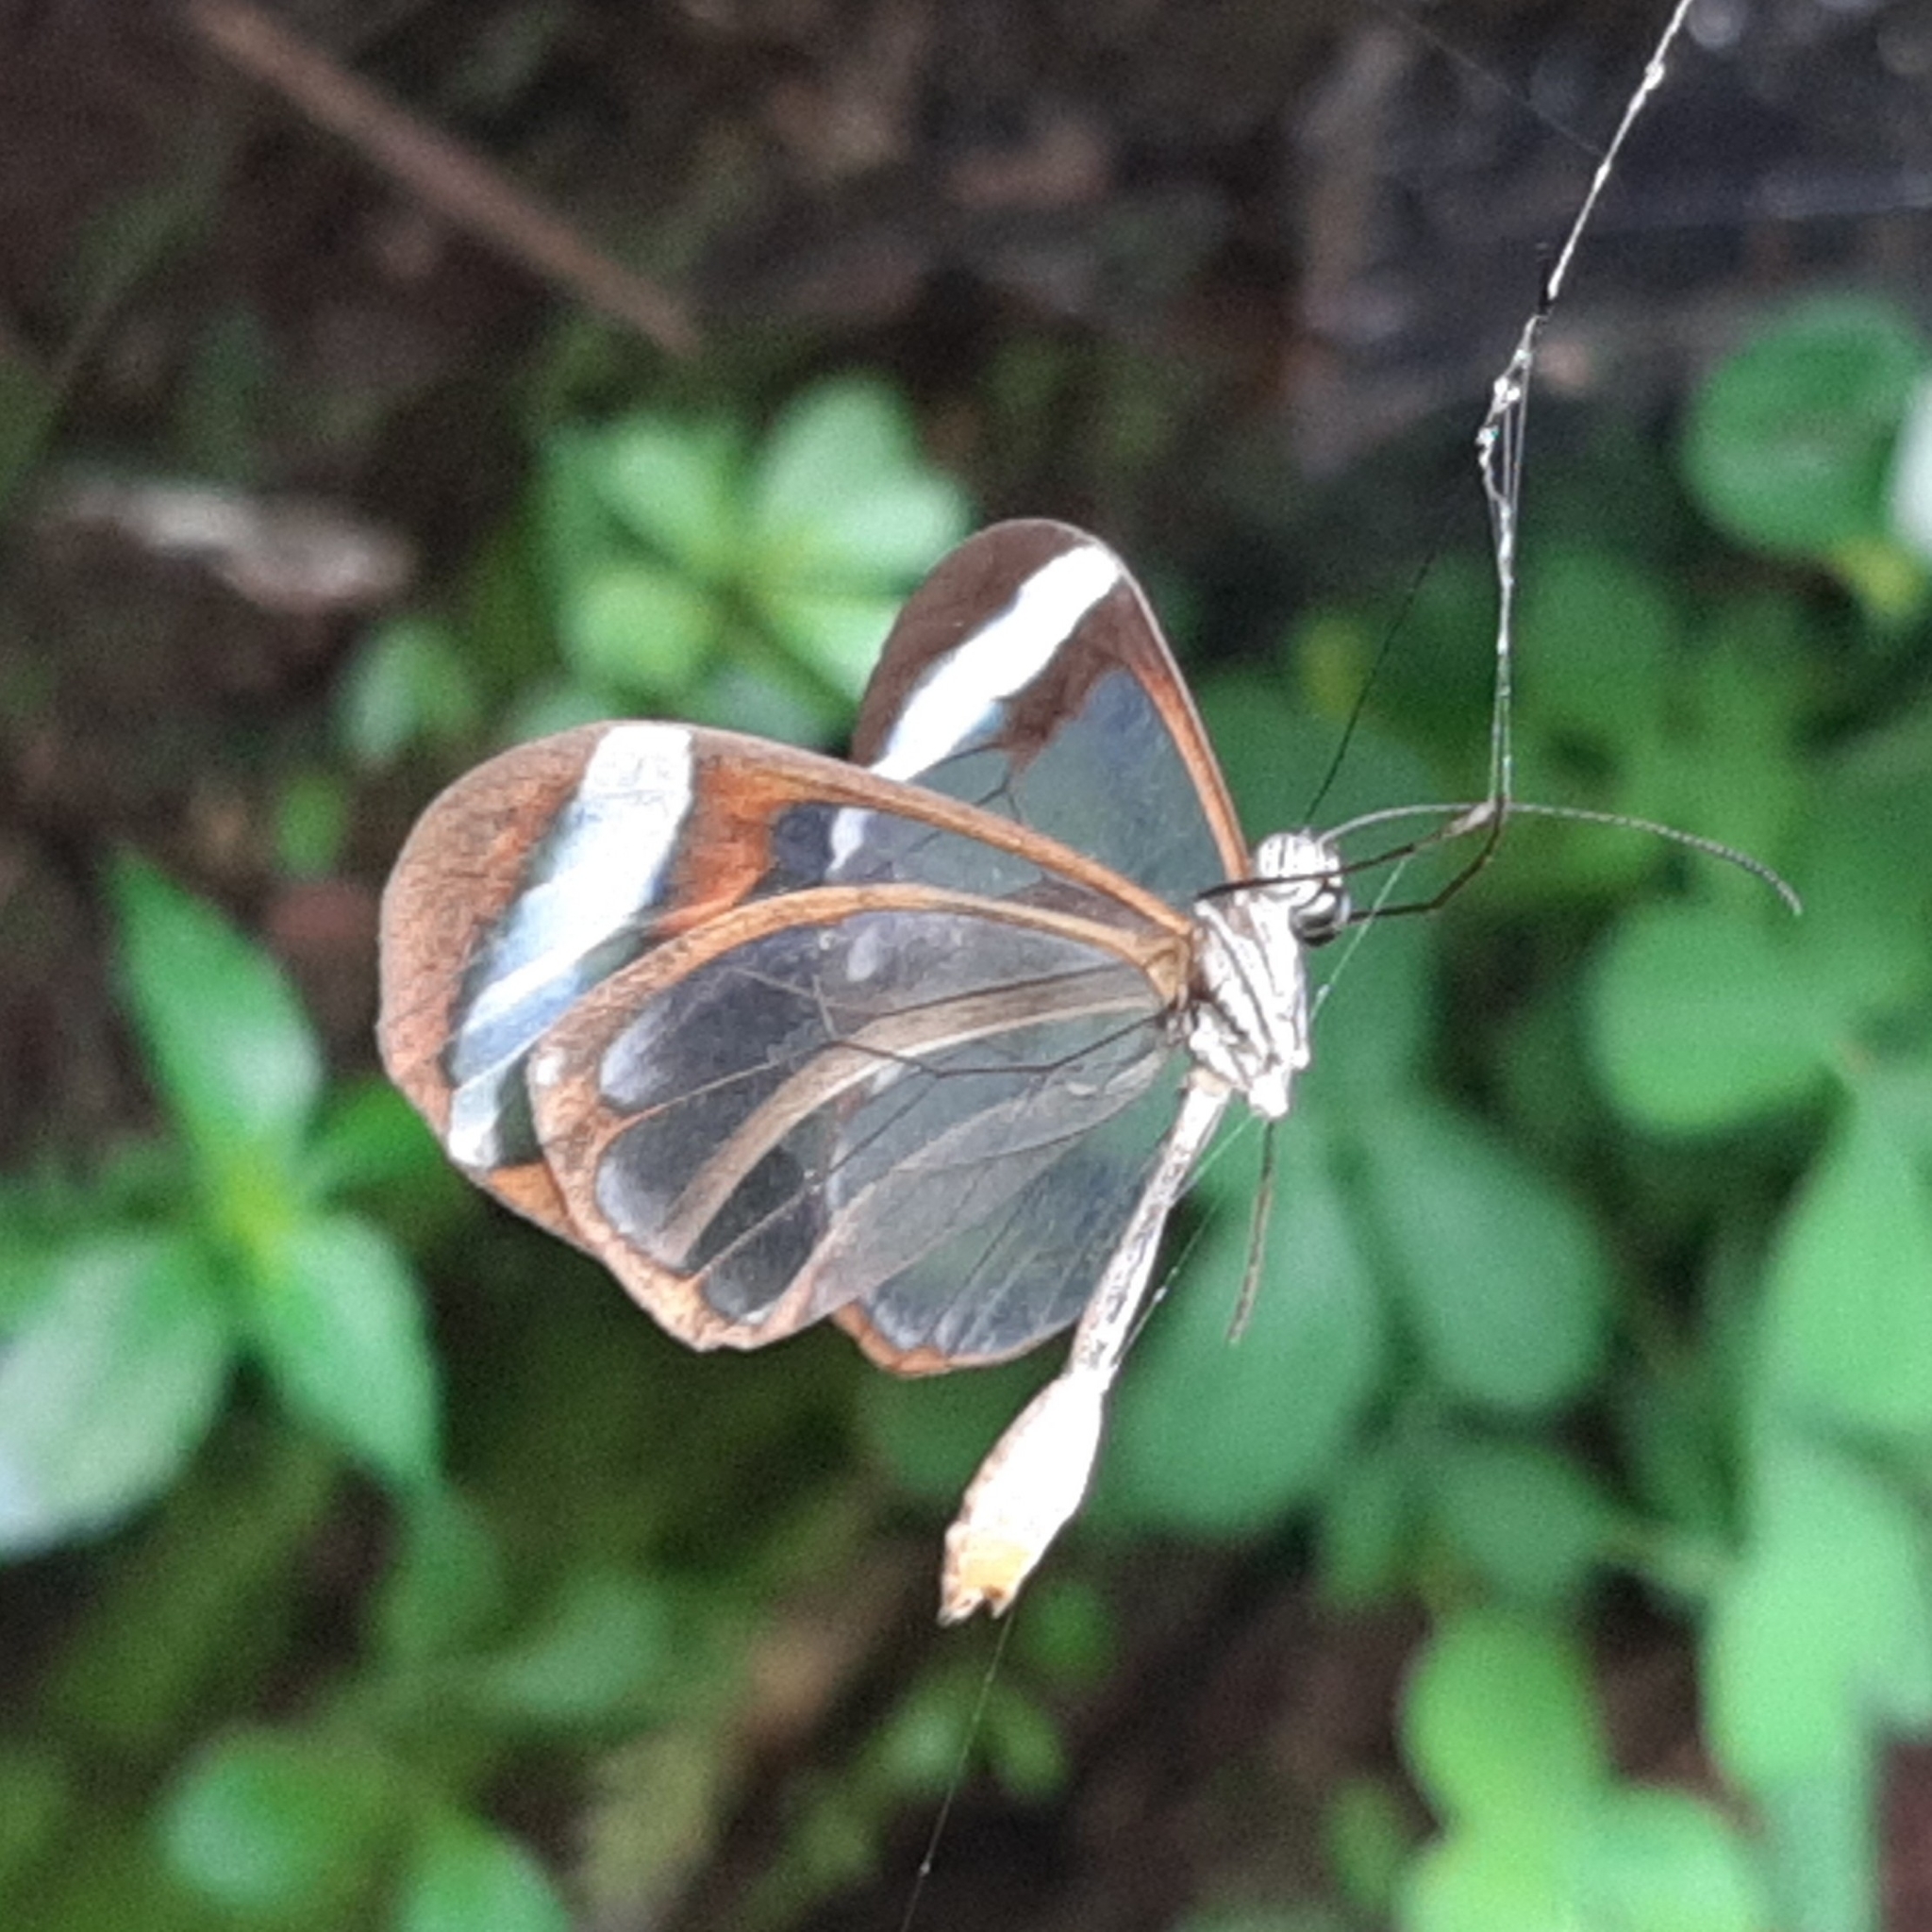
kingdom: Animalia
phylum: Arthropoda
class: Insecta
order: Lepidoptera
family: Nymphalidae
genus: Greta
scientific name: Greta morgane
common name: Thick-tipped greta
